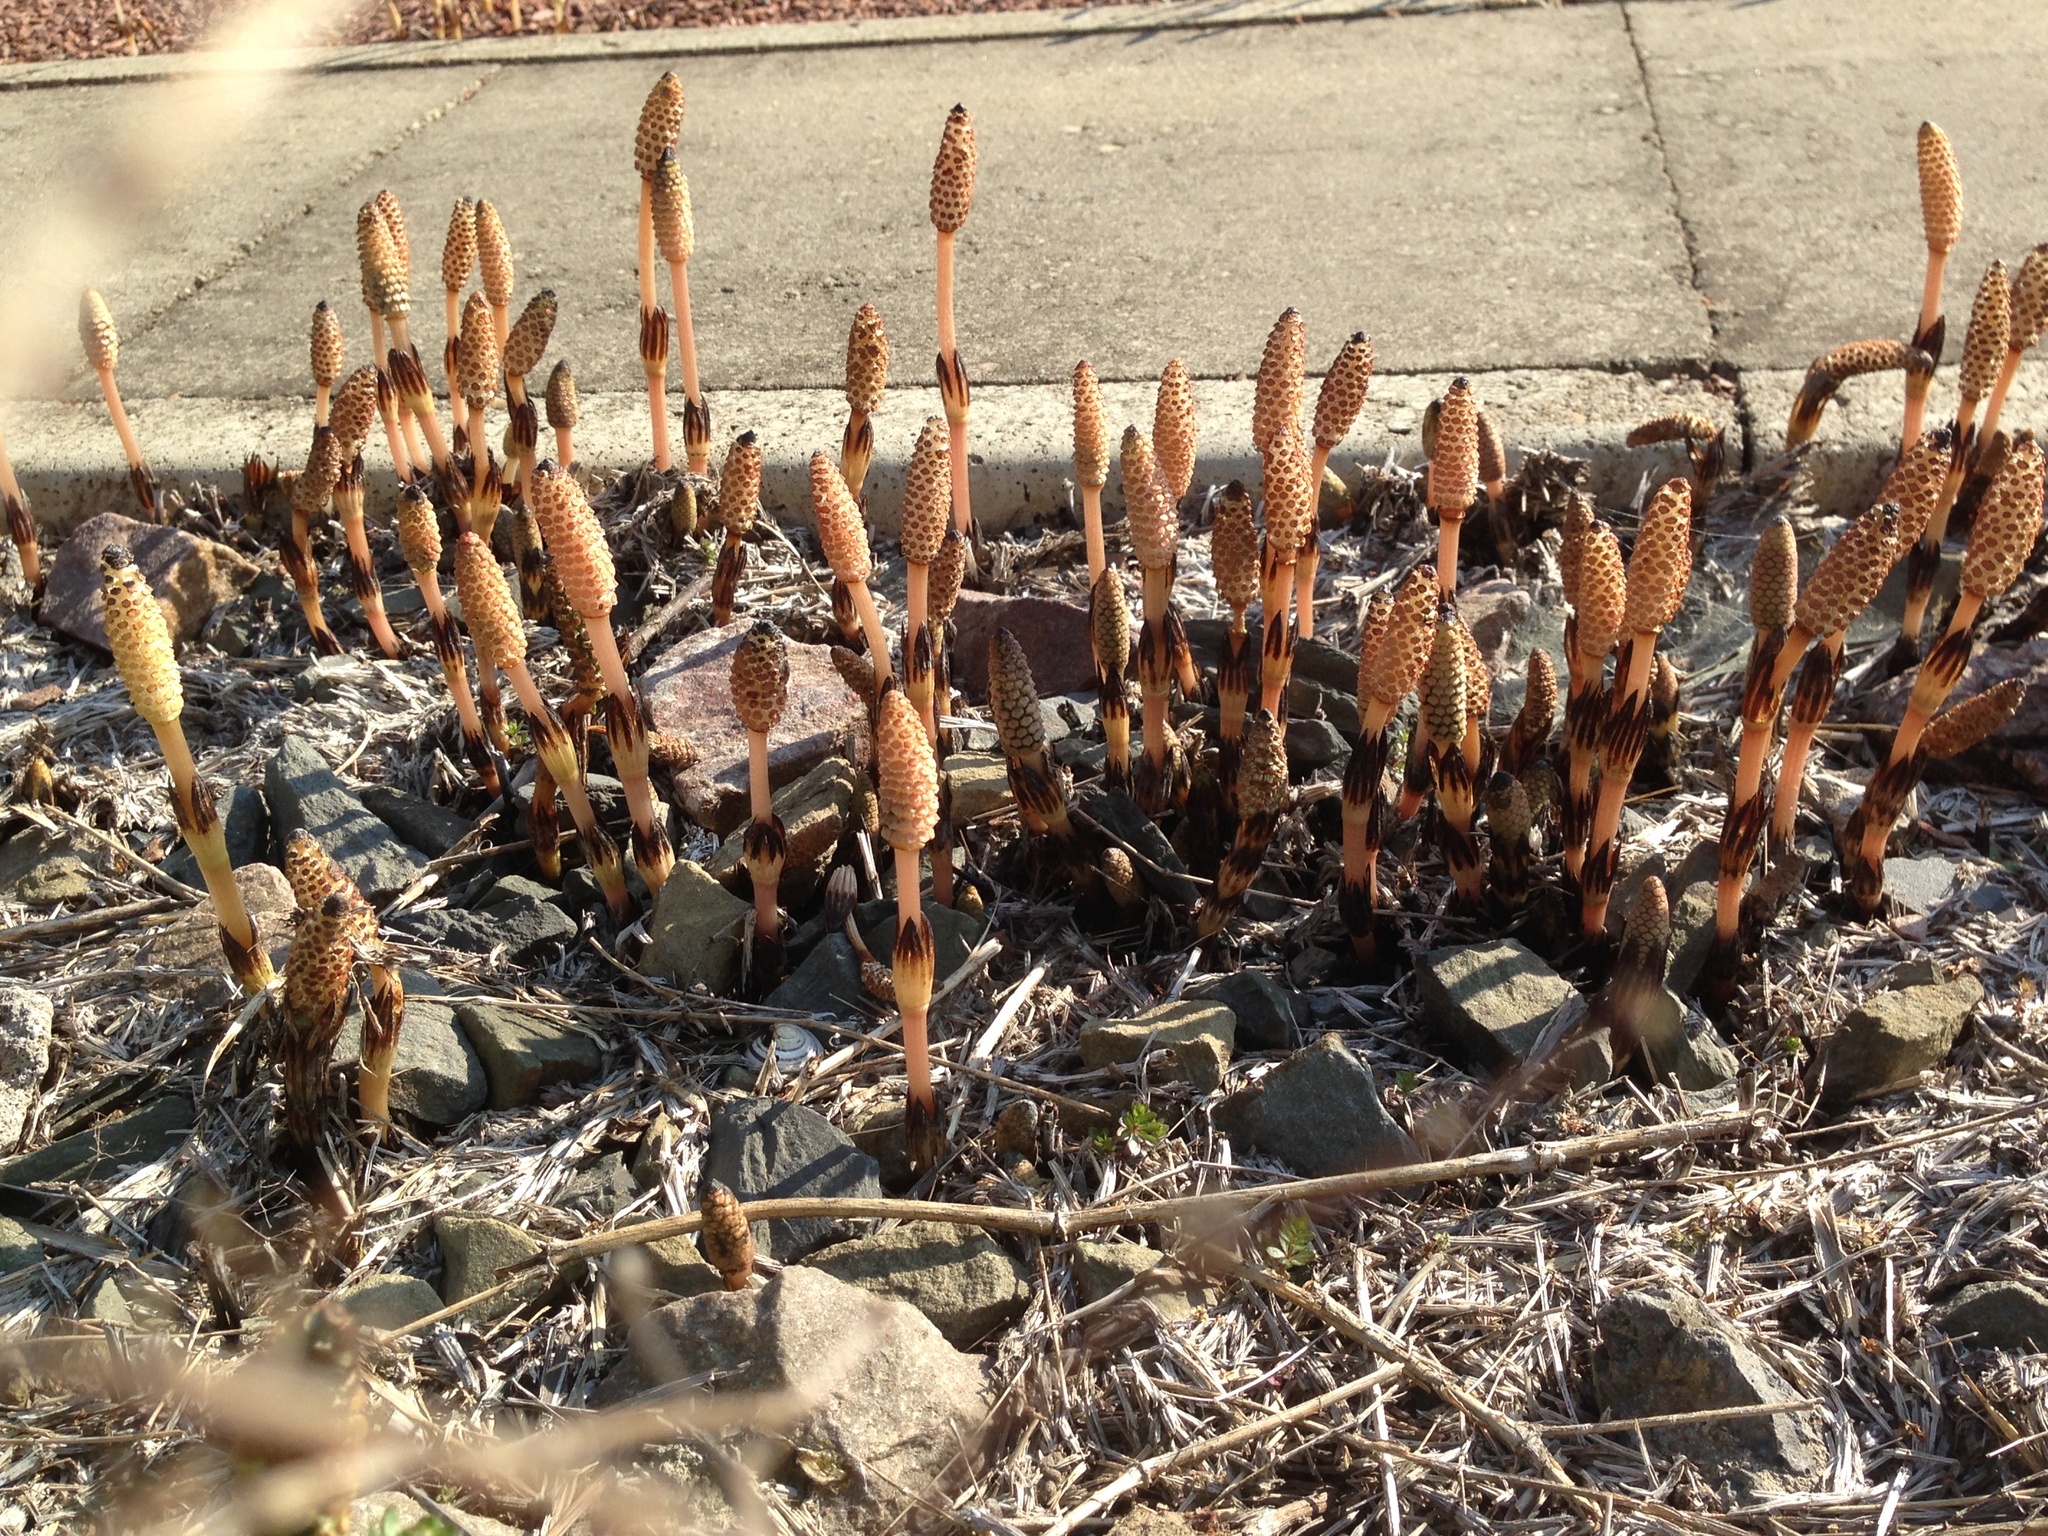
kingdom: Plantae
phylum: Tracheophyta
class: Polypodiopsida
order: Equisetales
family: Equisetaceae
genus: Equisetum
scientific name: Equisetum arvense
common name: Field horsetail
